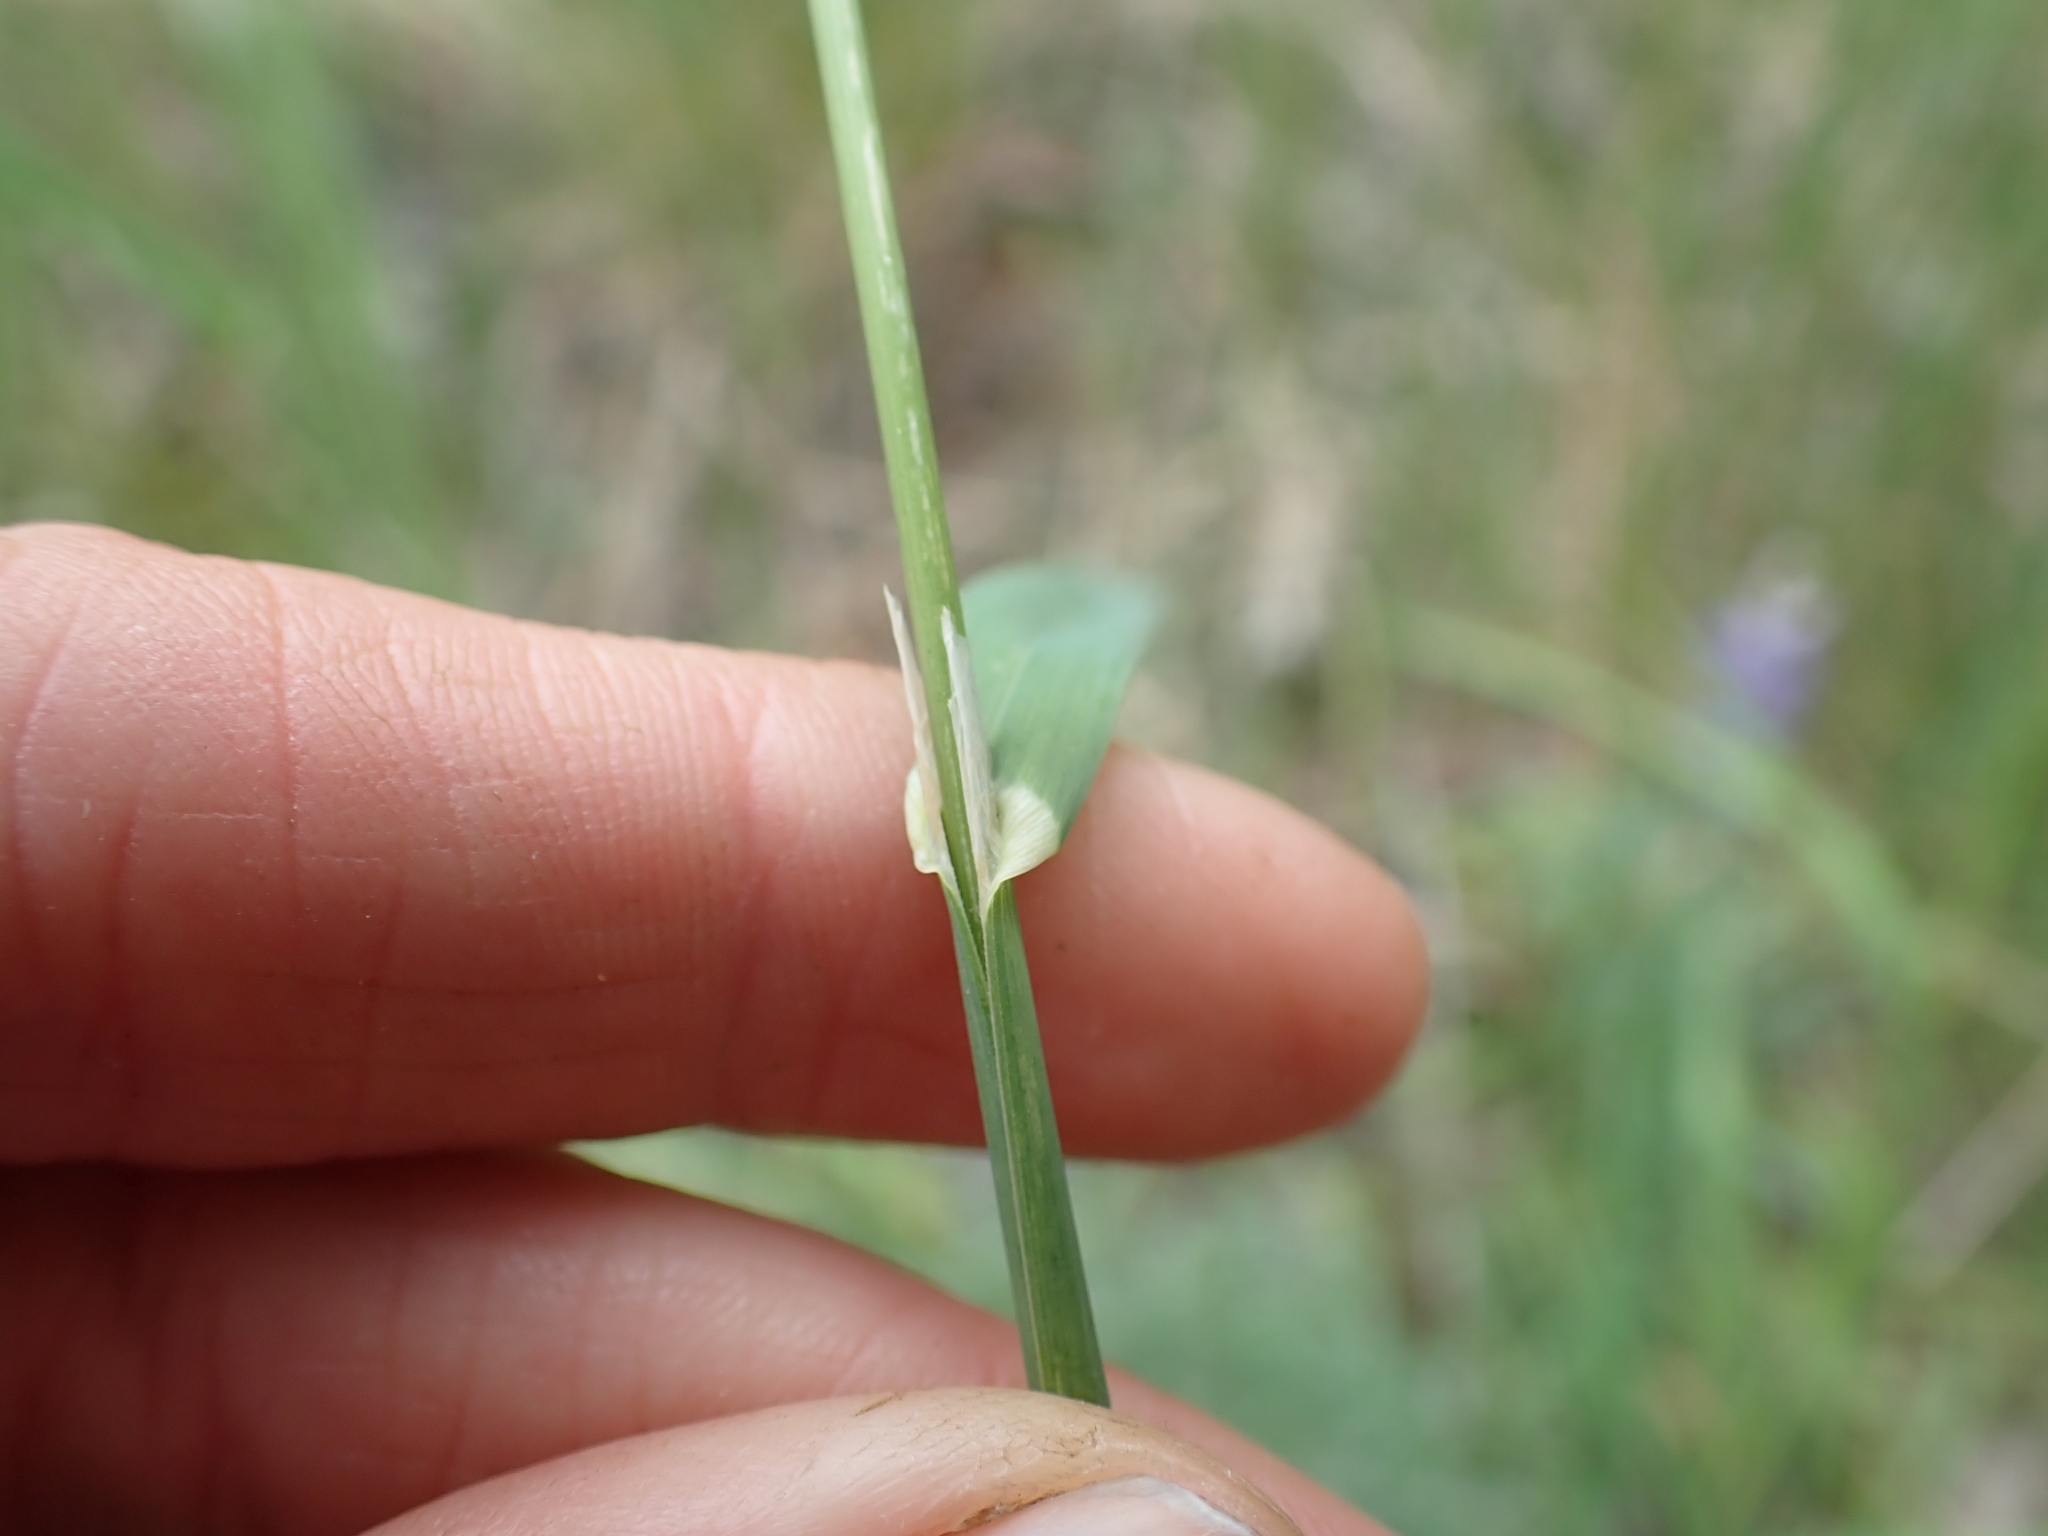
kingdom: Plantae
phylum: Tracheophyta
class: Liliopsida
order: Poales
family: Poaceae
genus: Dactylis
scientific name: Dactylis glomerata
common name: Orchardgrass
